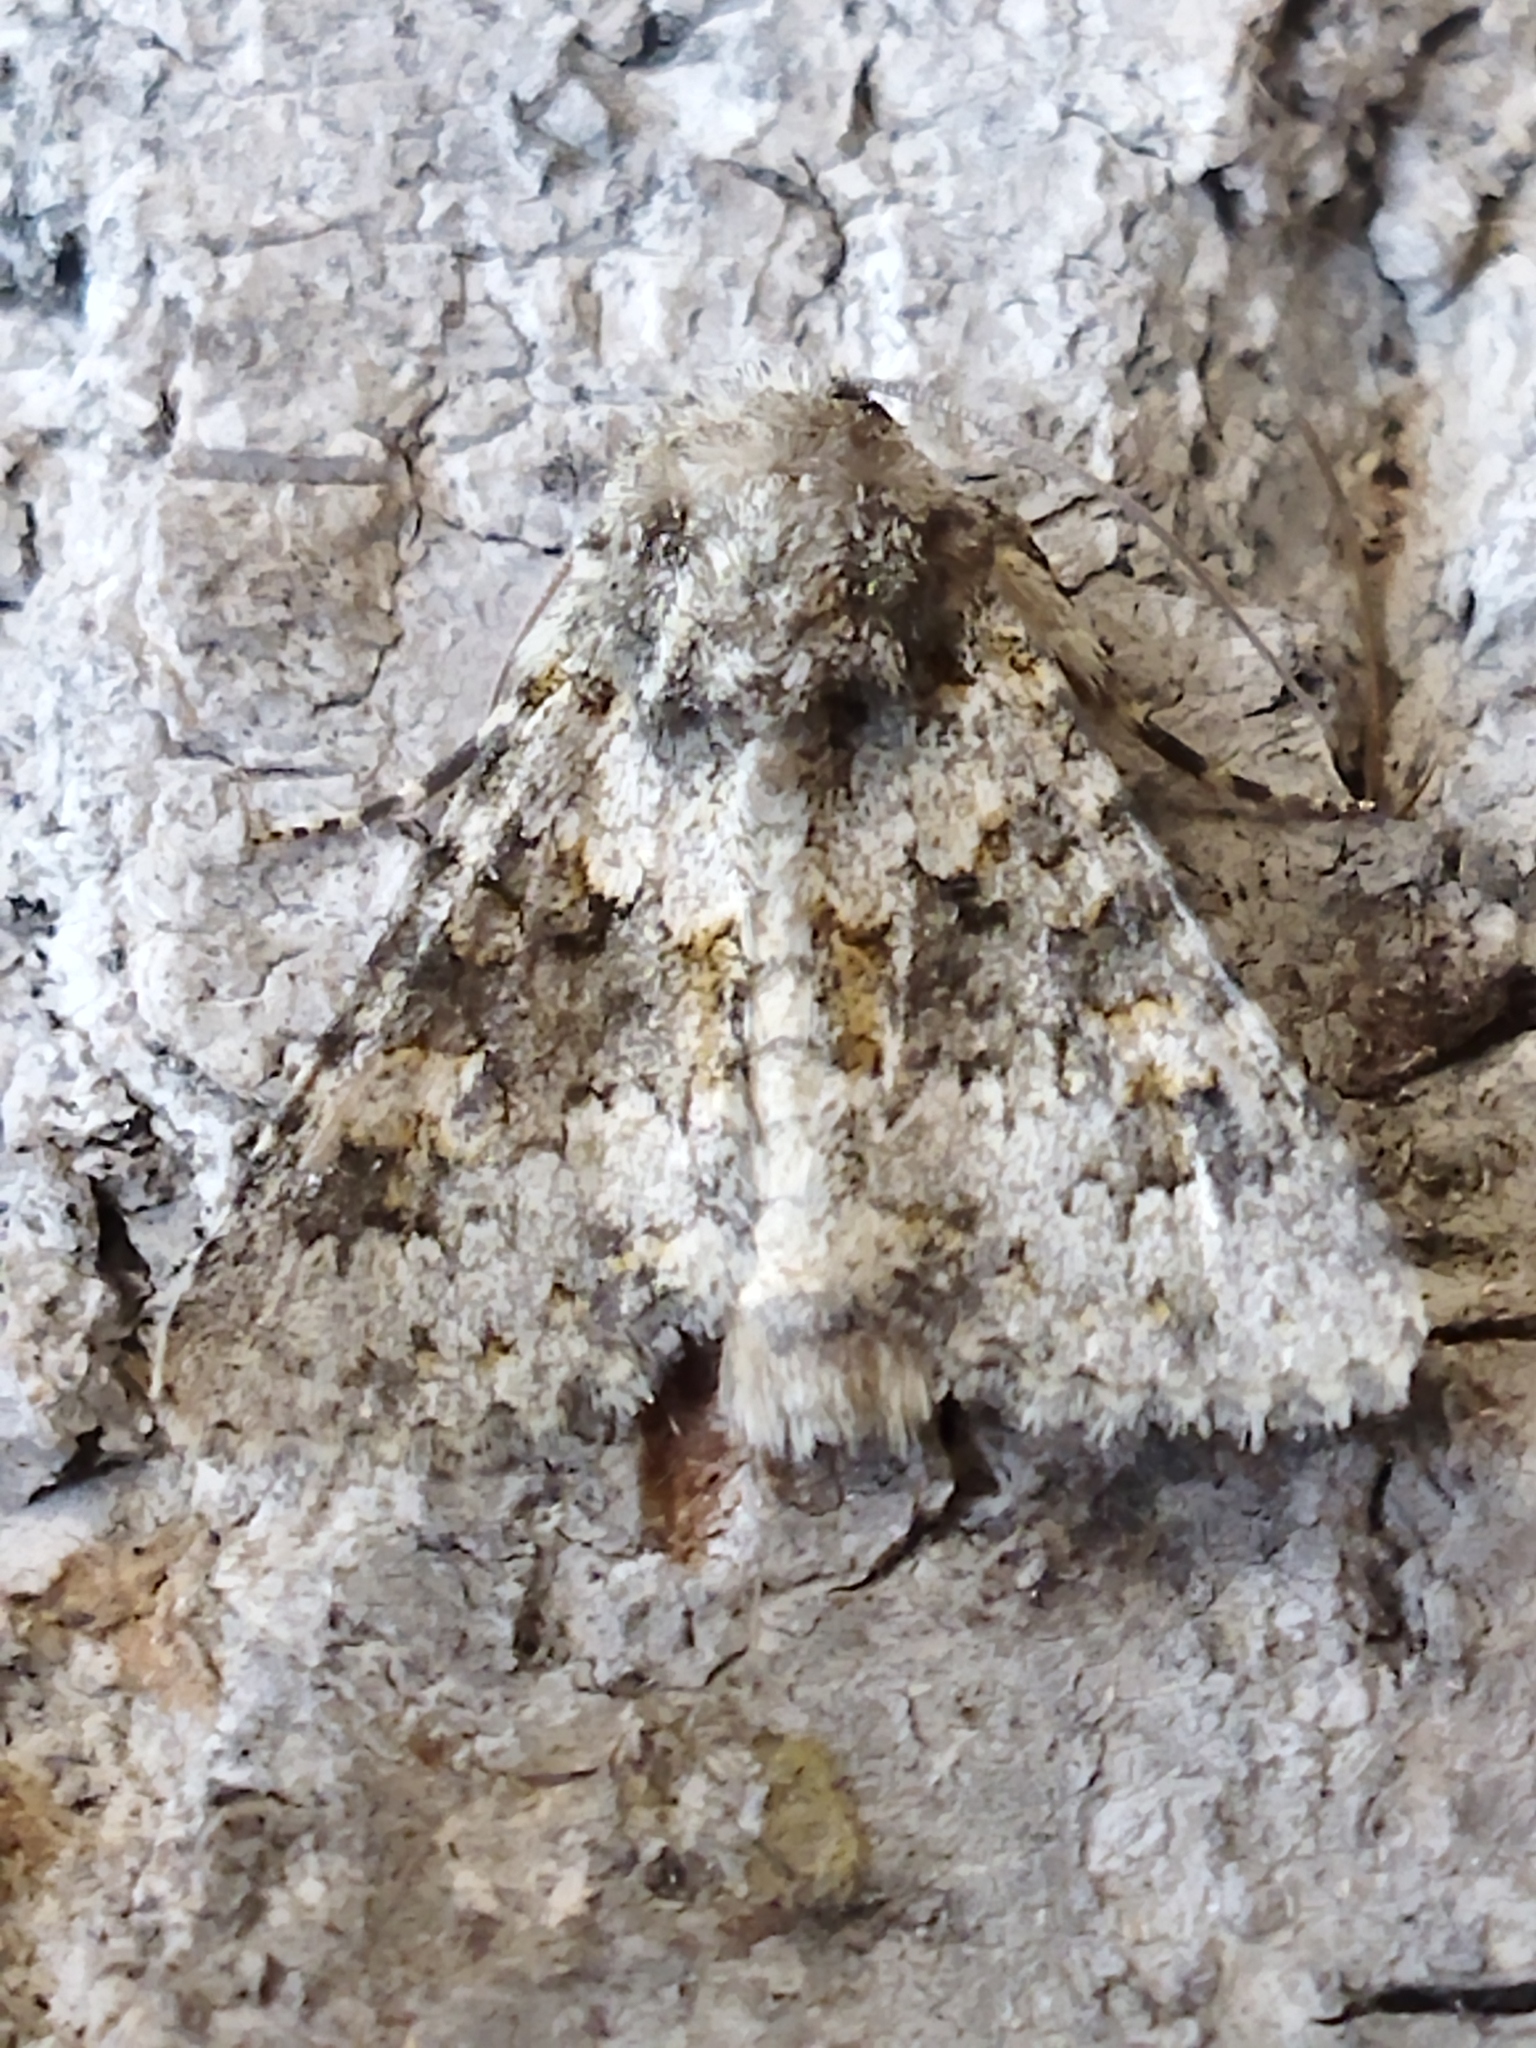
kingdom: Animalia
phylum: Arthropoda
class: Insecta
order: Lepidoptera
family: Noctuidae
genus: Hecatera
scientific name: Hecatera dysodea
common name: Small ranunculus
